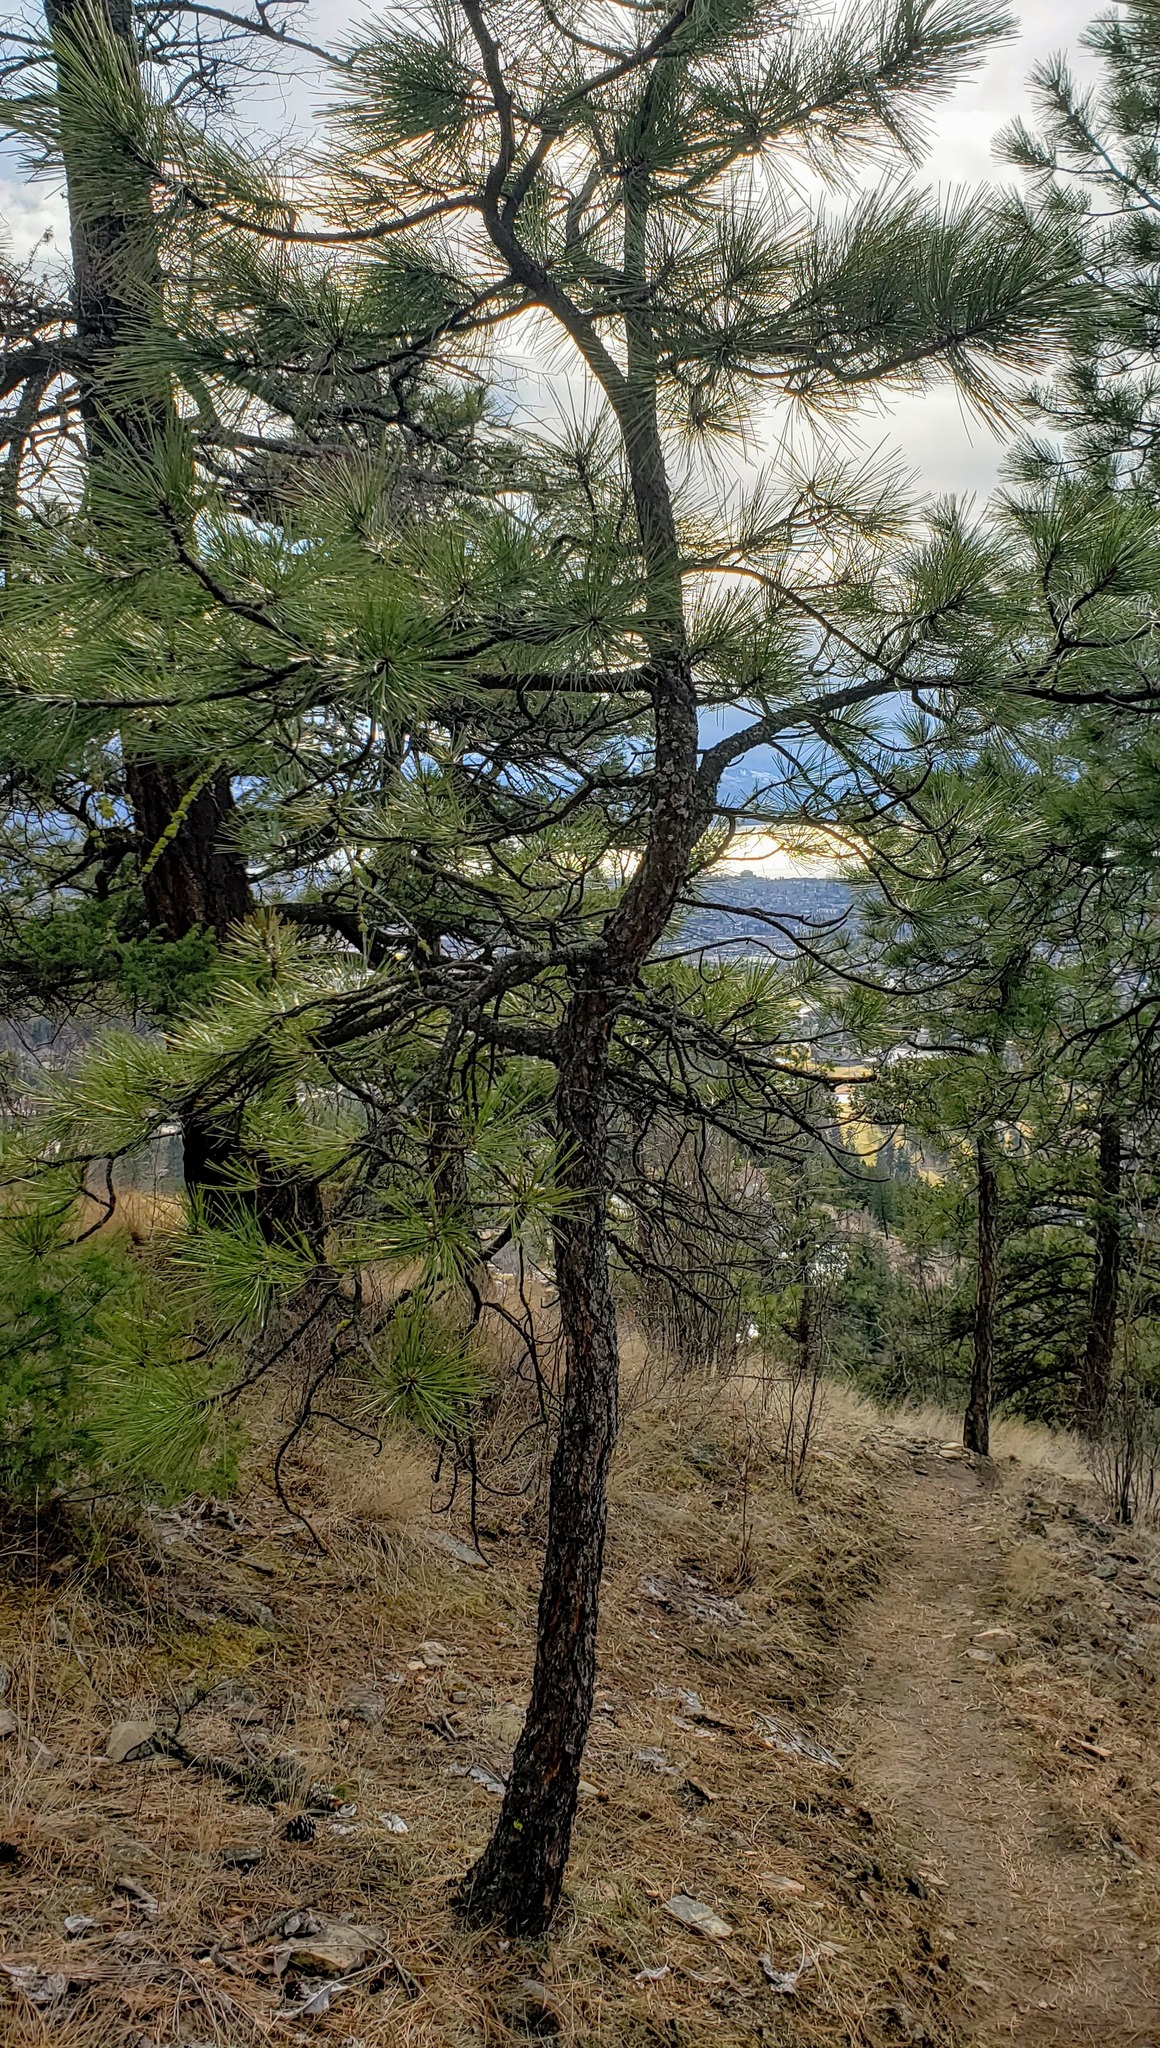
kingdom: Plantae
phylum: Tracheophyta
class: Pinopsida
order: Pinales
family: Pinaceae
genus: Pinus
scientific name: Pinus ponderosa
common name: Western yellow-pine
